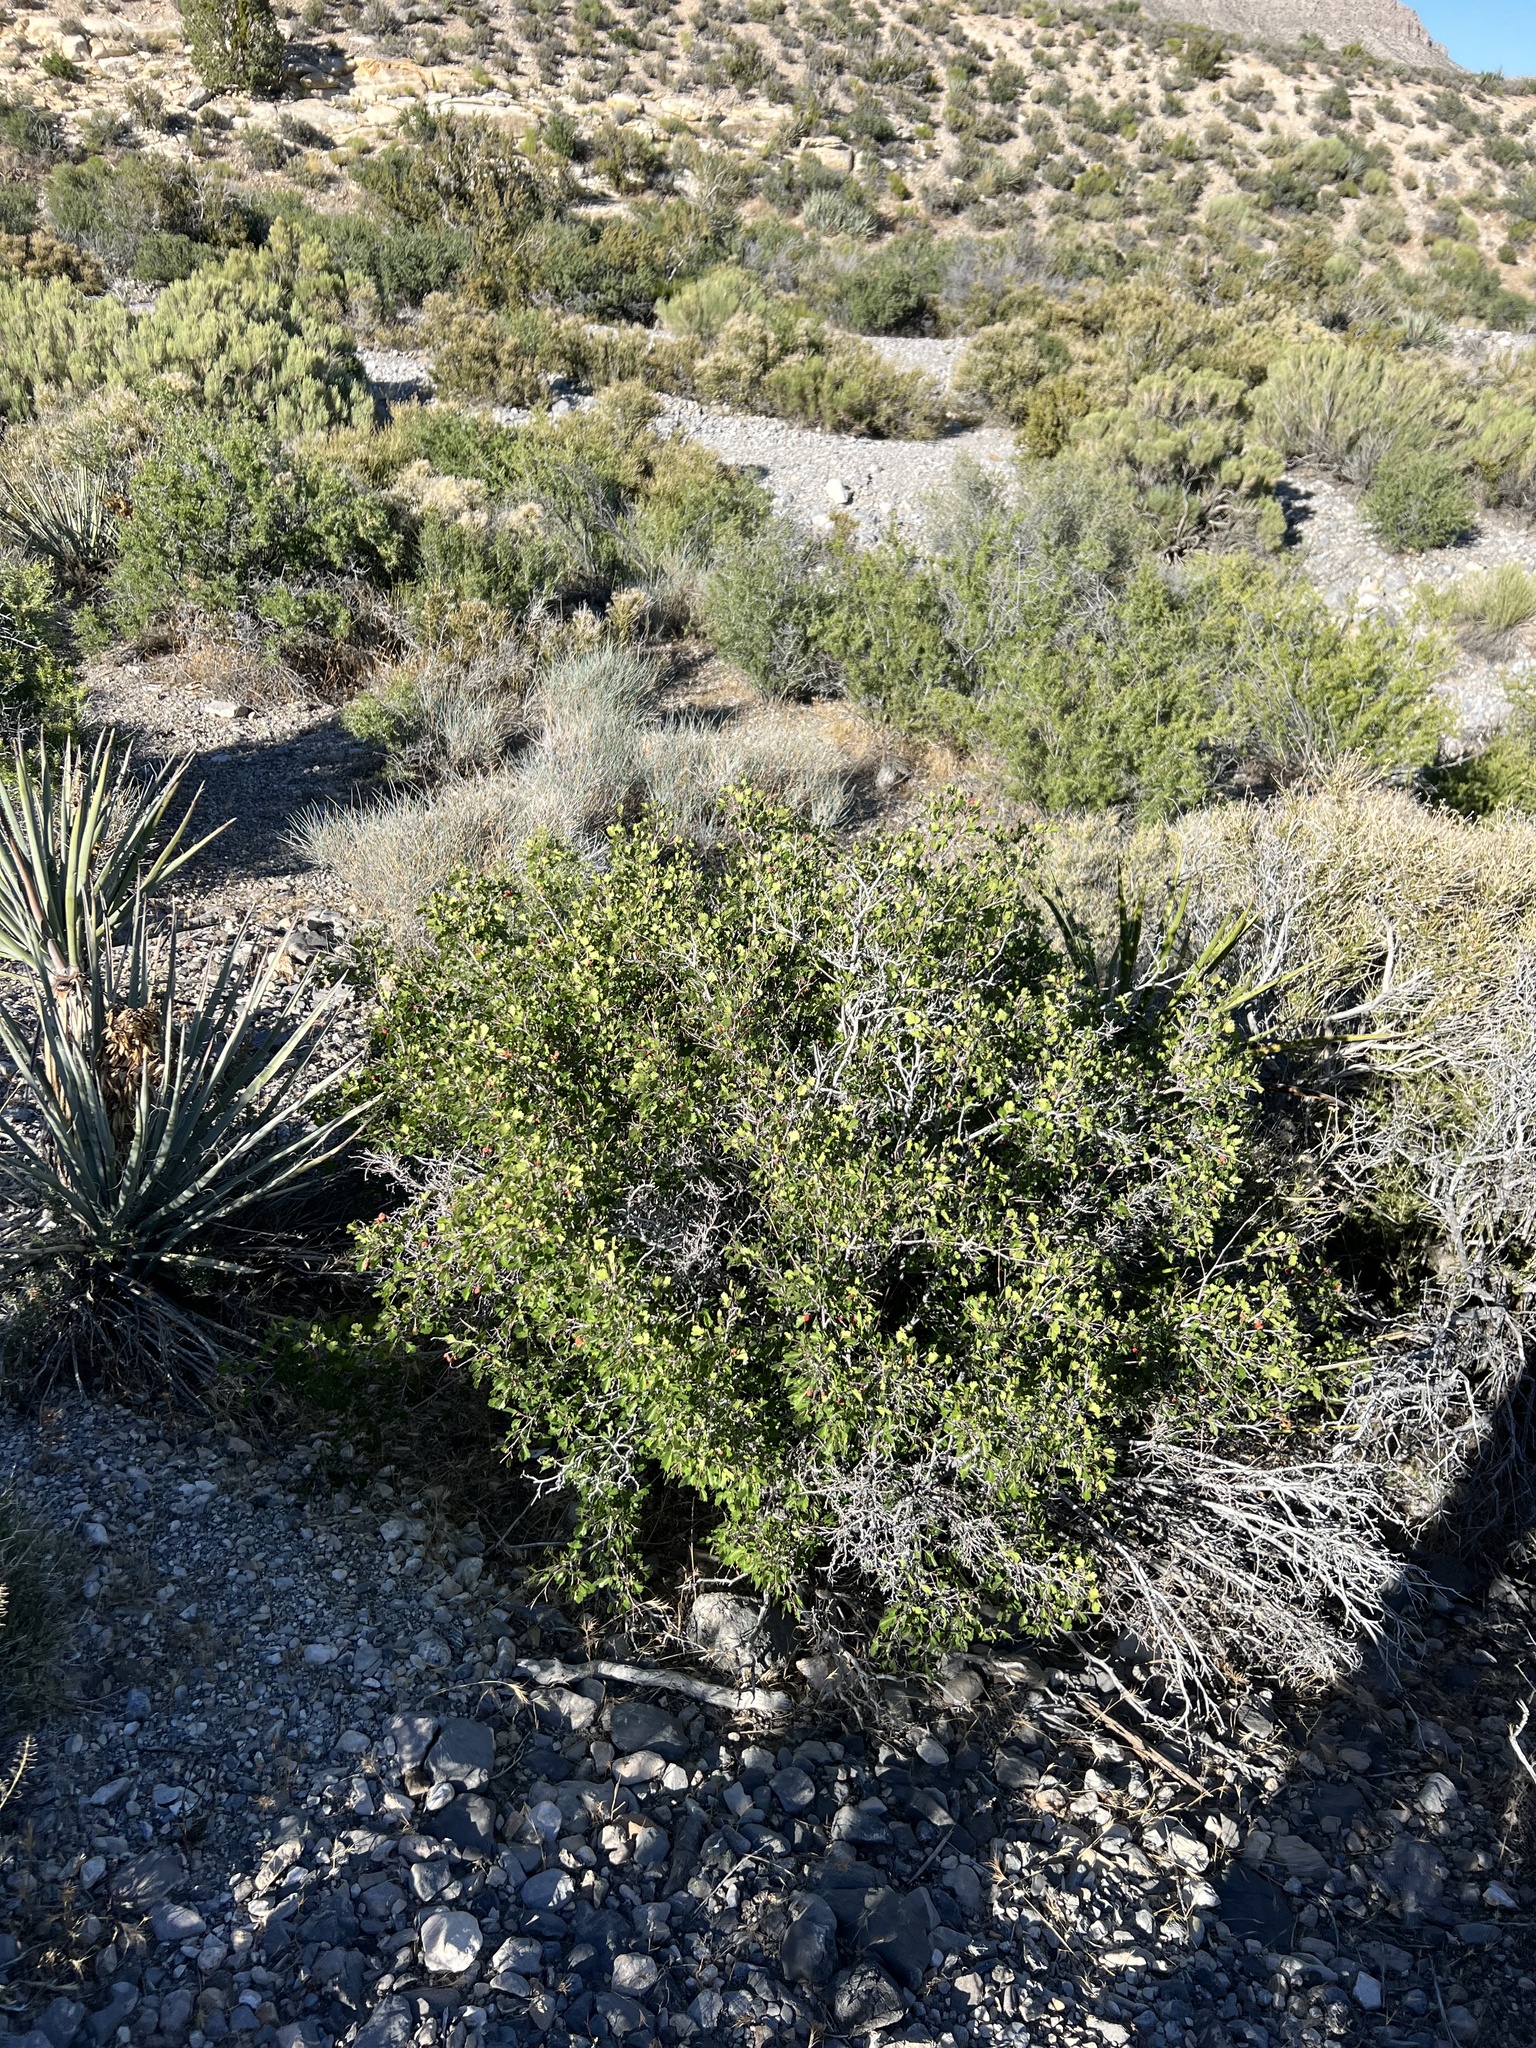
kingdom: Plantae
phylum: Tracheophyta
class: Magnoliopsida
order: Sapindales
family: Anacardiaceae
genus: Rhus
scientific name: Rhus trilobata
